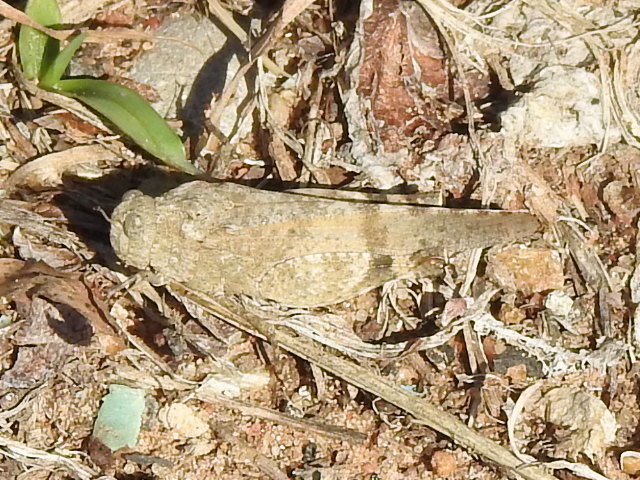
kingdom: Animalia
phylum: Arthropoda
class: Insecta
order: Orthoptera
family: Acrididae
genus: Lactista
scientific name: Lactista azteca
